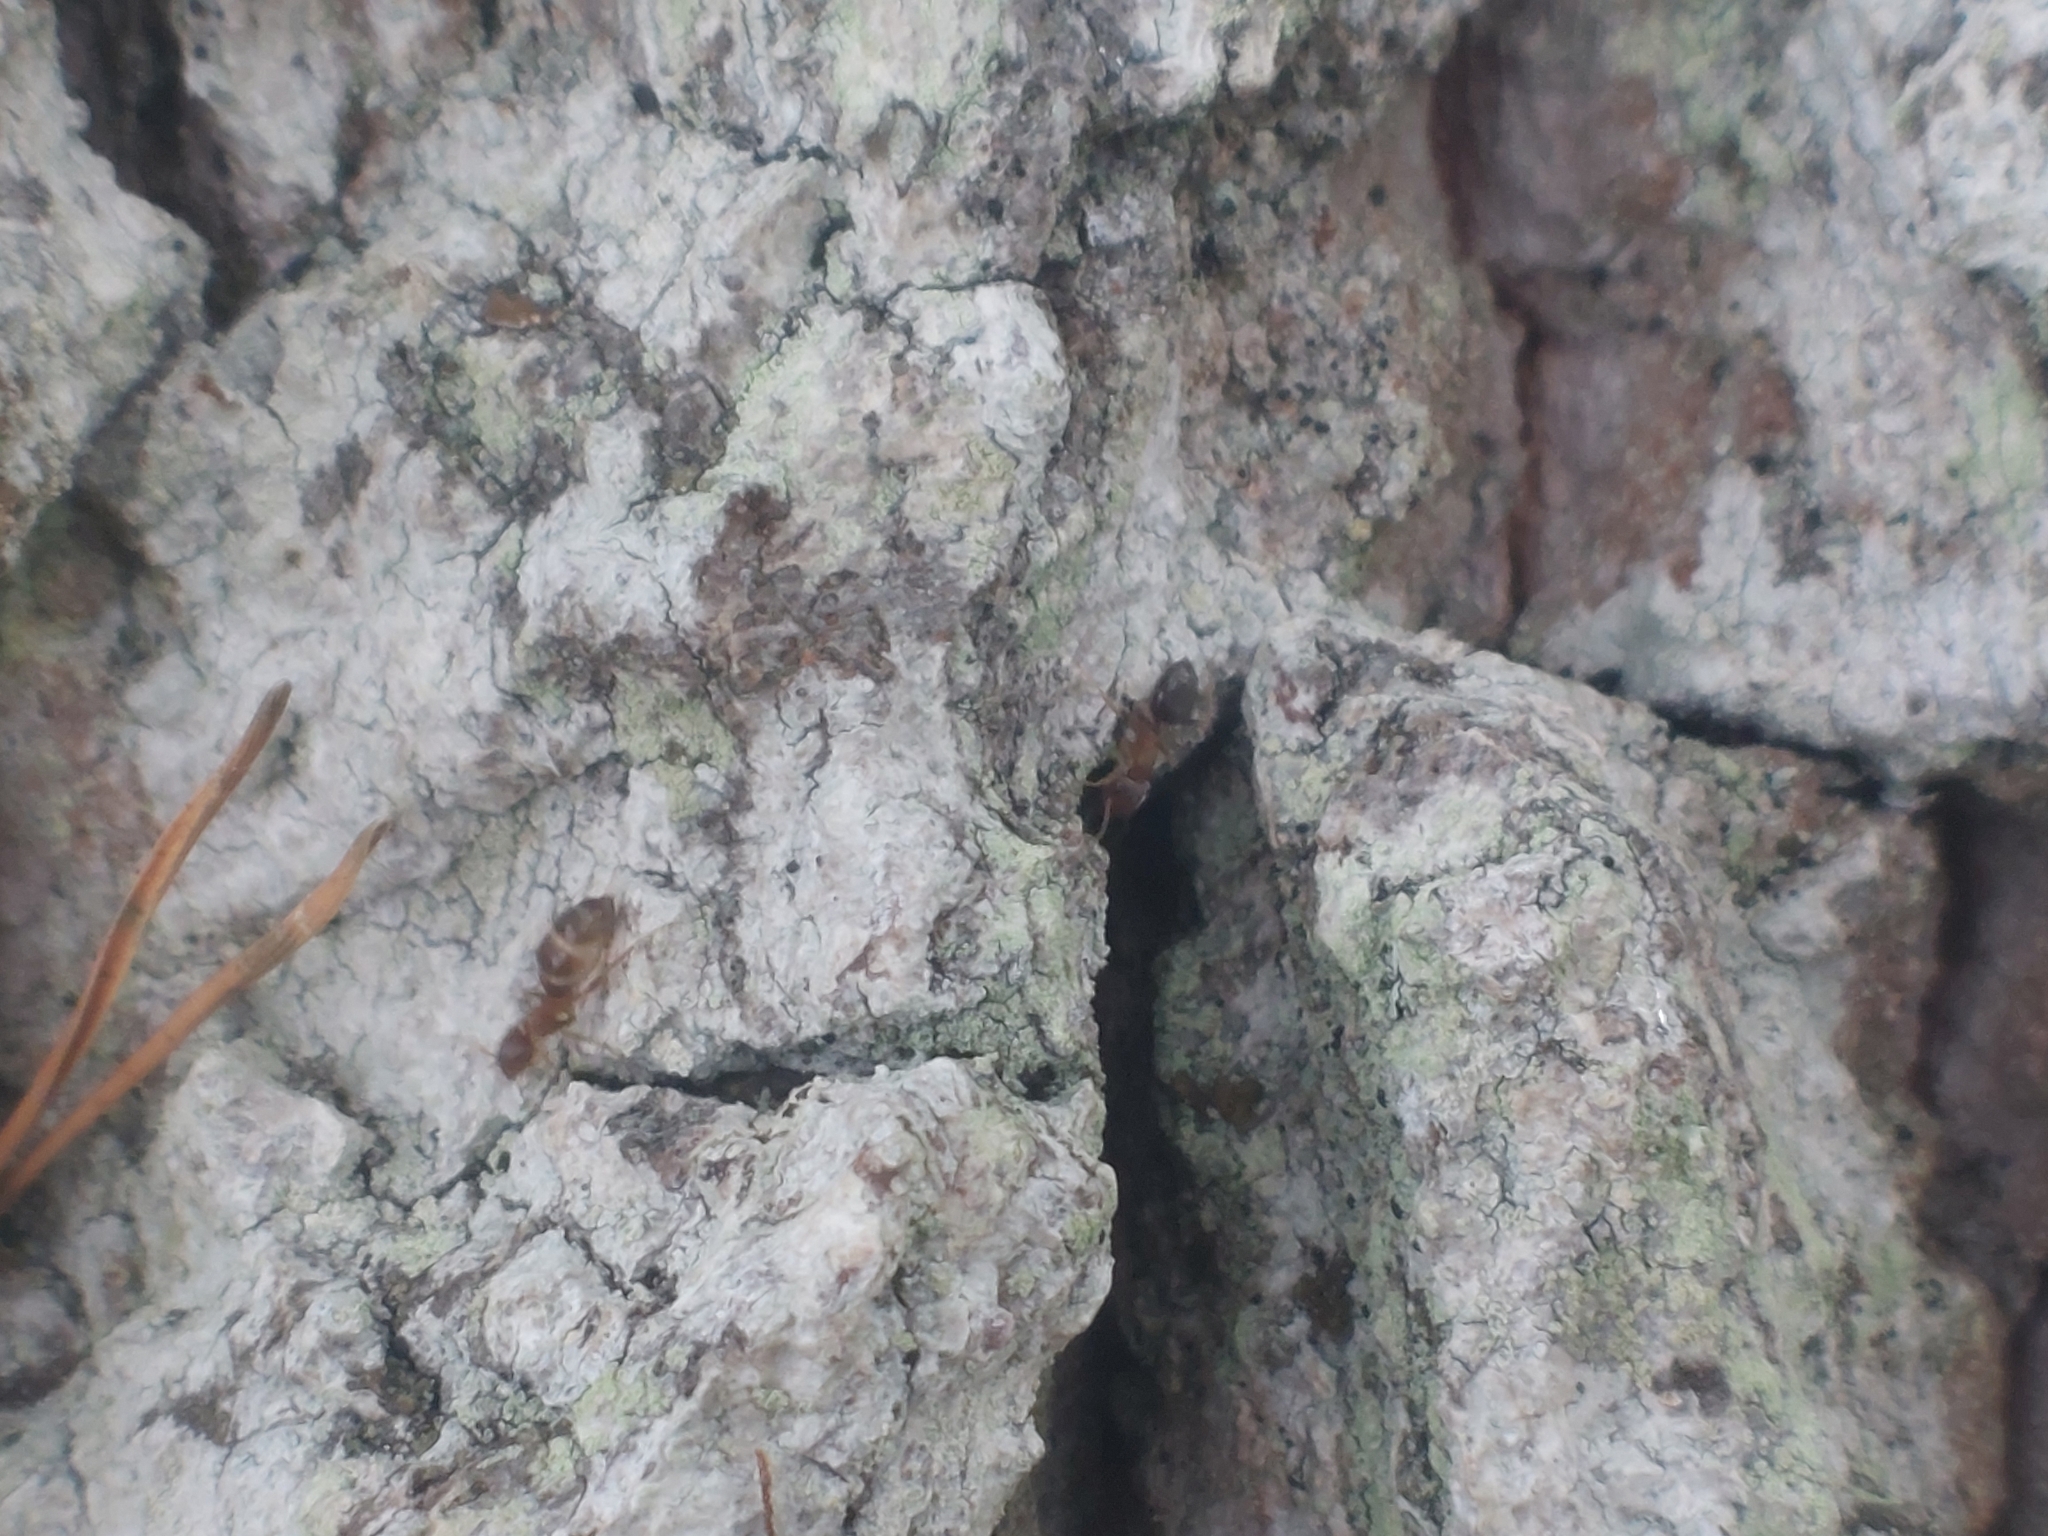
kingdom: Animalia
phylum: Arthropoda
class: Insecta
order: Hymenoptera
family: Formicidae
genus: Lasius
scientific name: Lasius brunneus
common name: Brown ant
